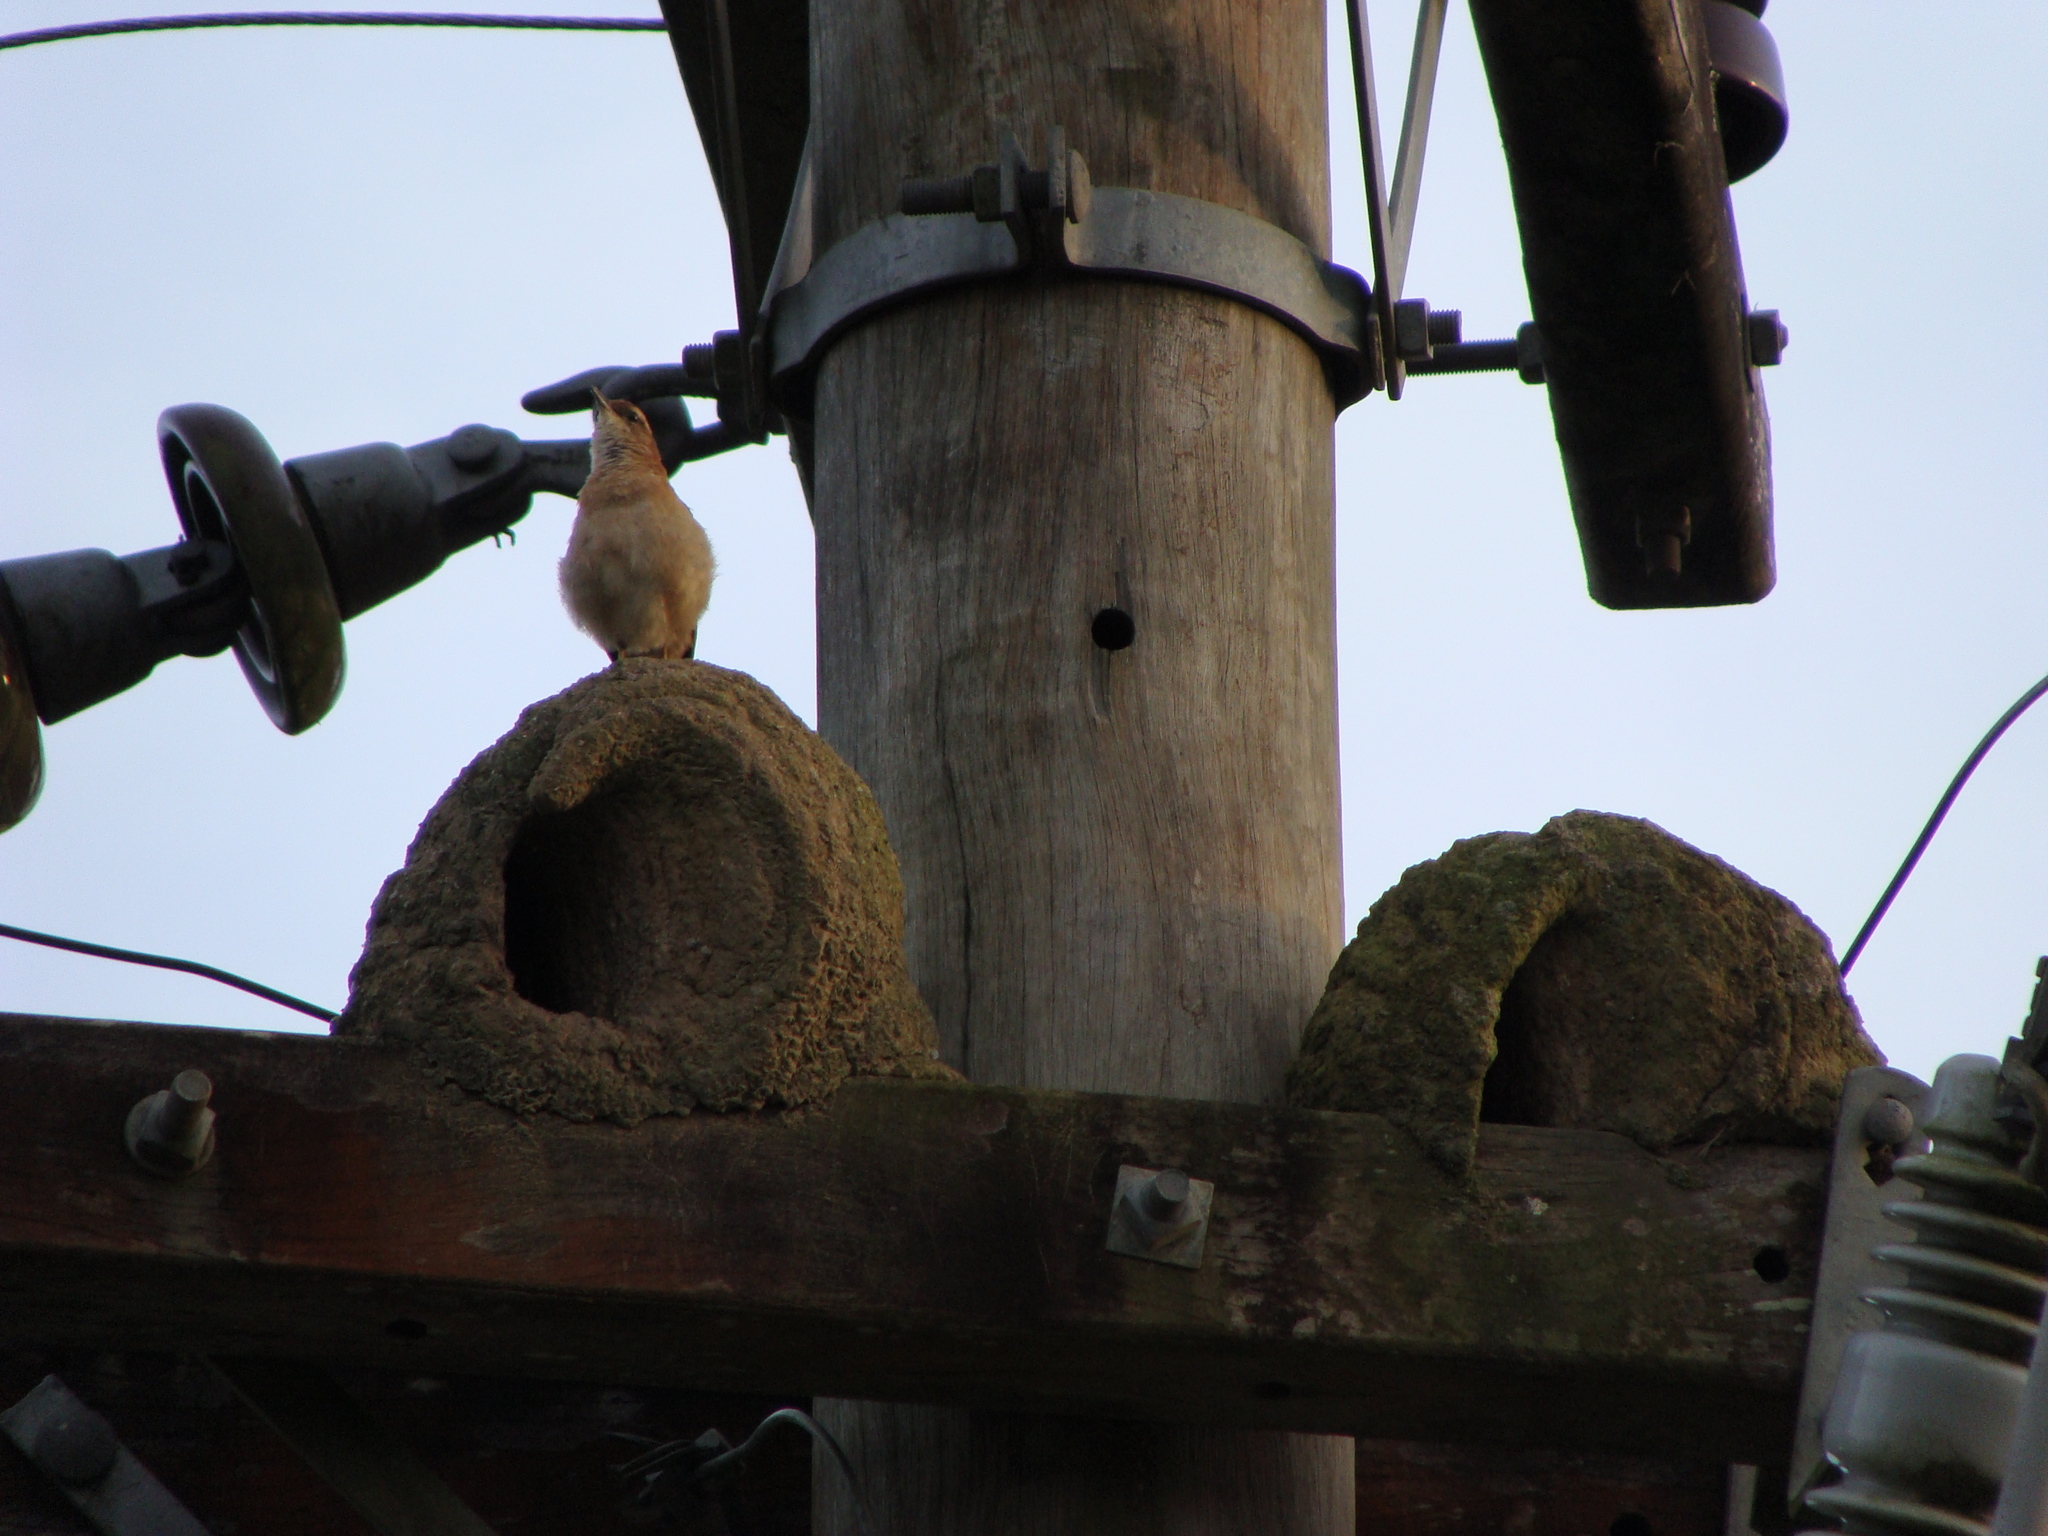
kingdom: Animalia
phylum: Chordata
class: Aves
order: Passeriformes
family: Furnariidae
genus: Furnarius
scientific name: Furnarius rufus
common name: Rufous hornero
